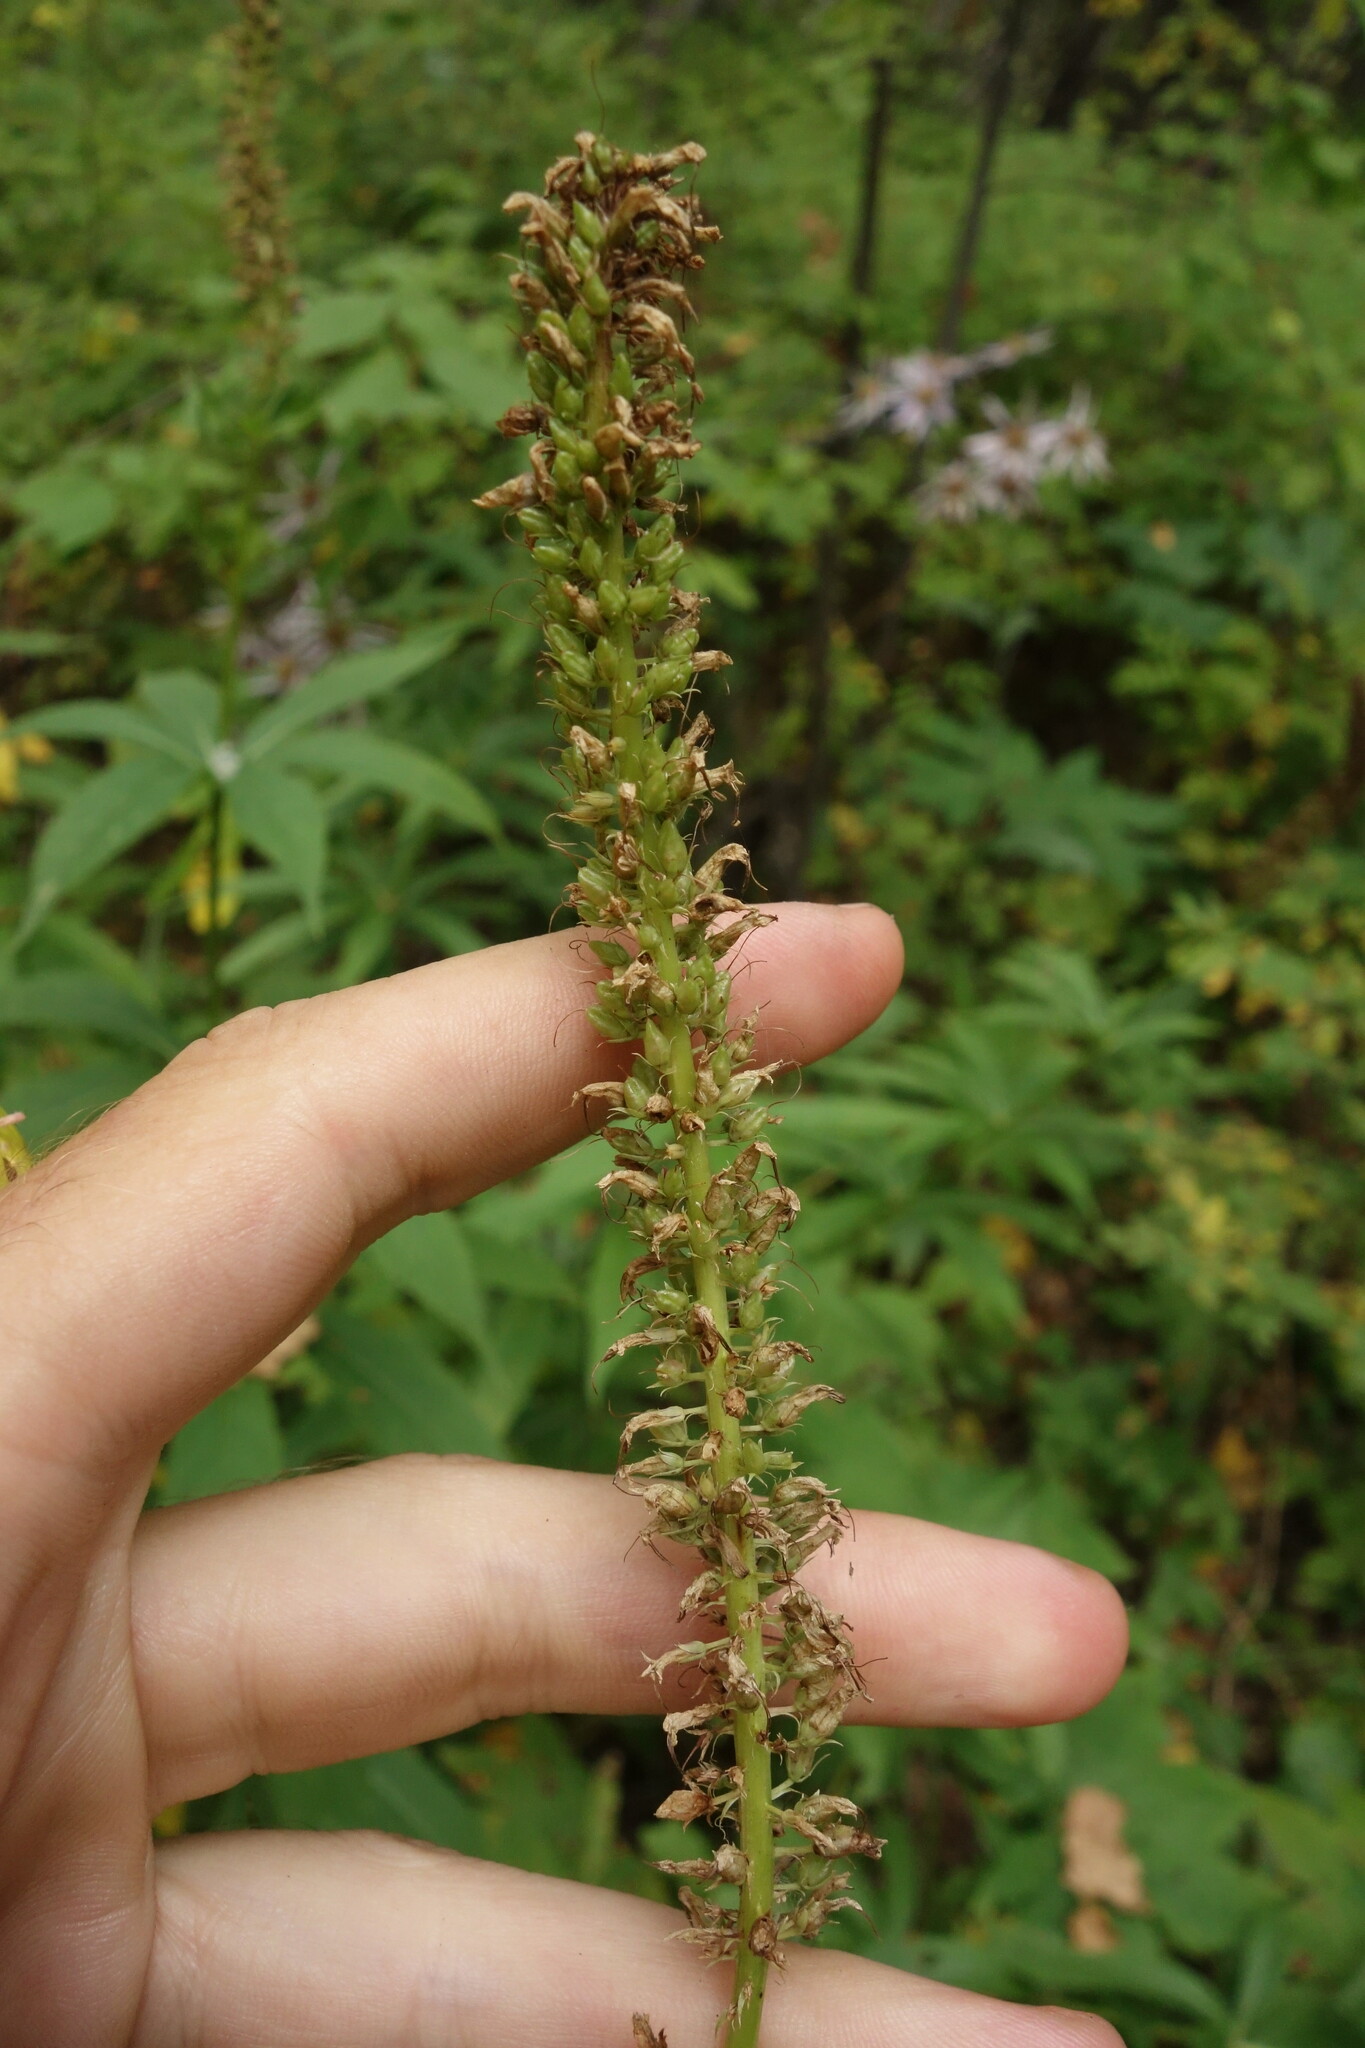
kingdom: Plantae
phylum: Tracheophyta
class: Magnoliopsida
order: Lamiales
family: Plantaginaceae
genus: Veronicastrum
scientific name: Veronicastrum sibiricum
